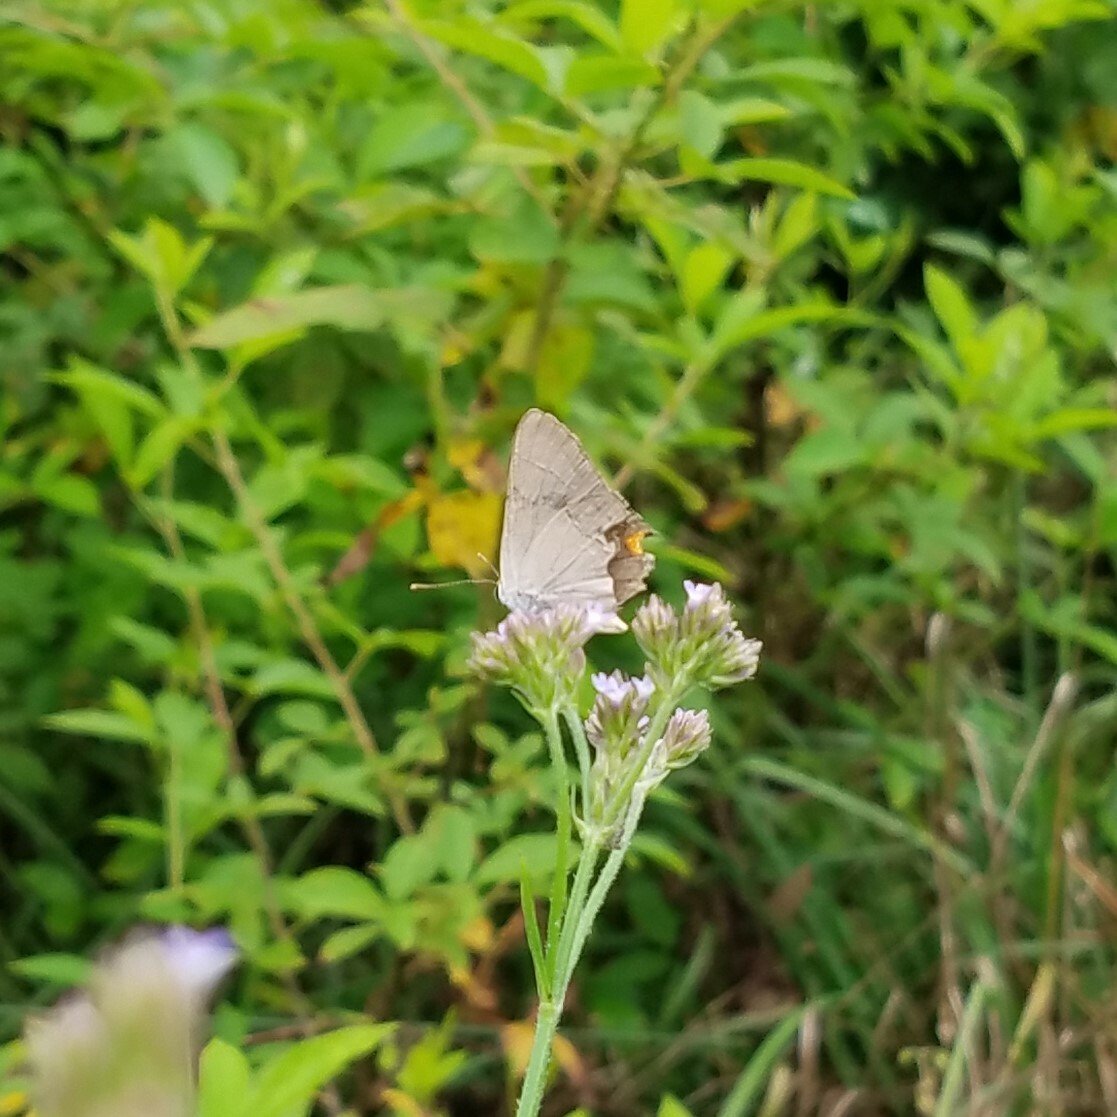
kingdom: Animalia
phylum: Arthropoda
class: Insecta
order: Lepidoptera
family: Lycaenidae
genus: Strymon
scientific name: Strymon melinus
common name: Gray hairstreak
